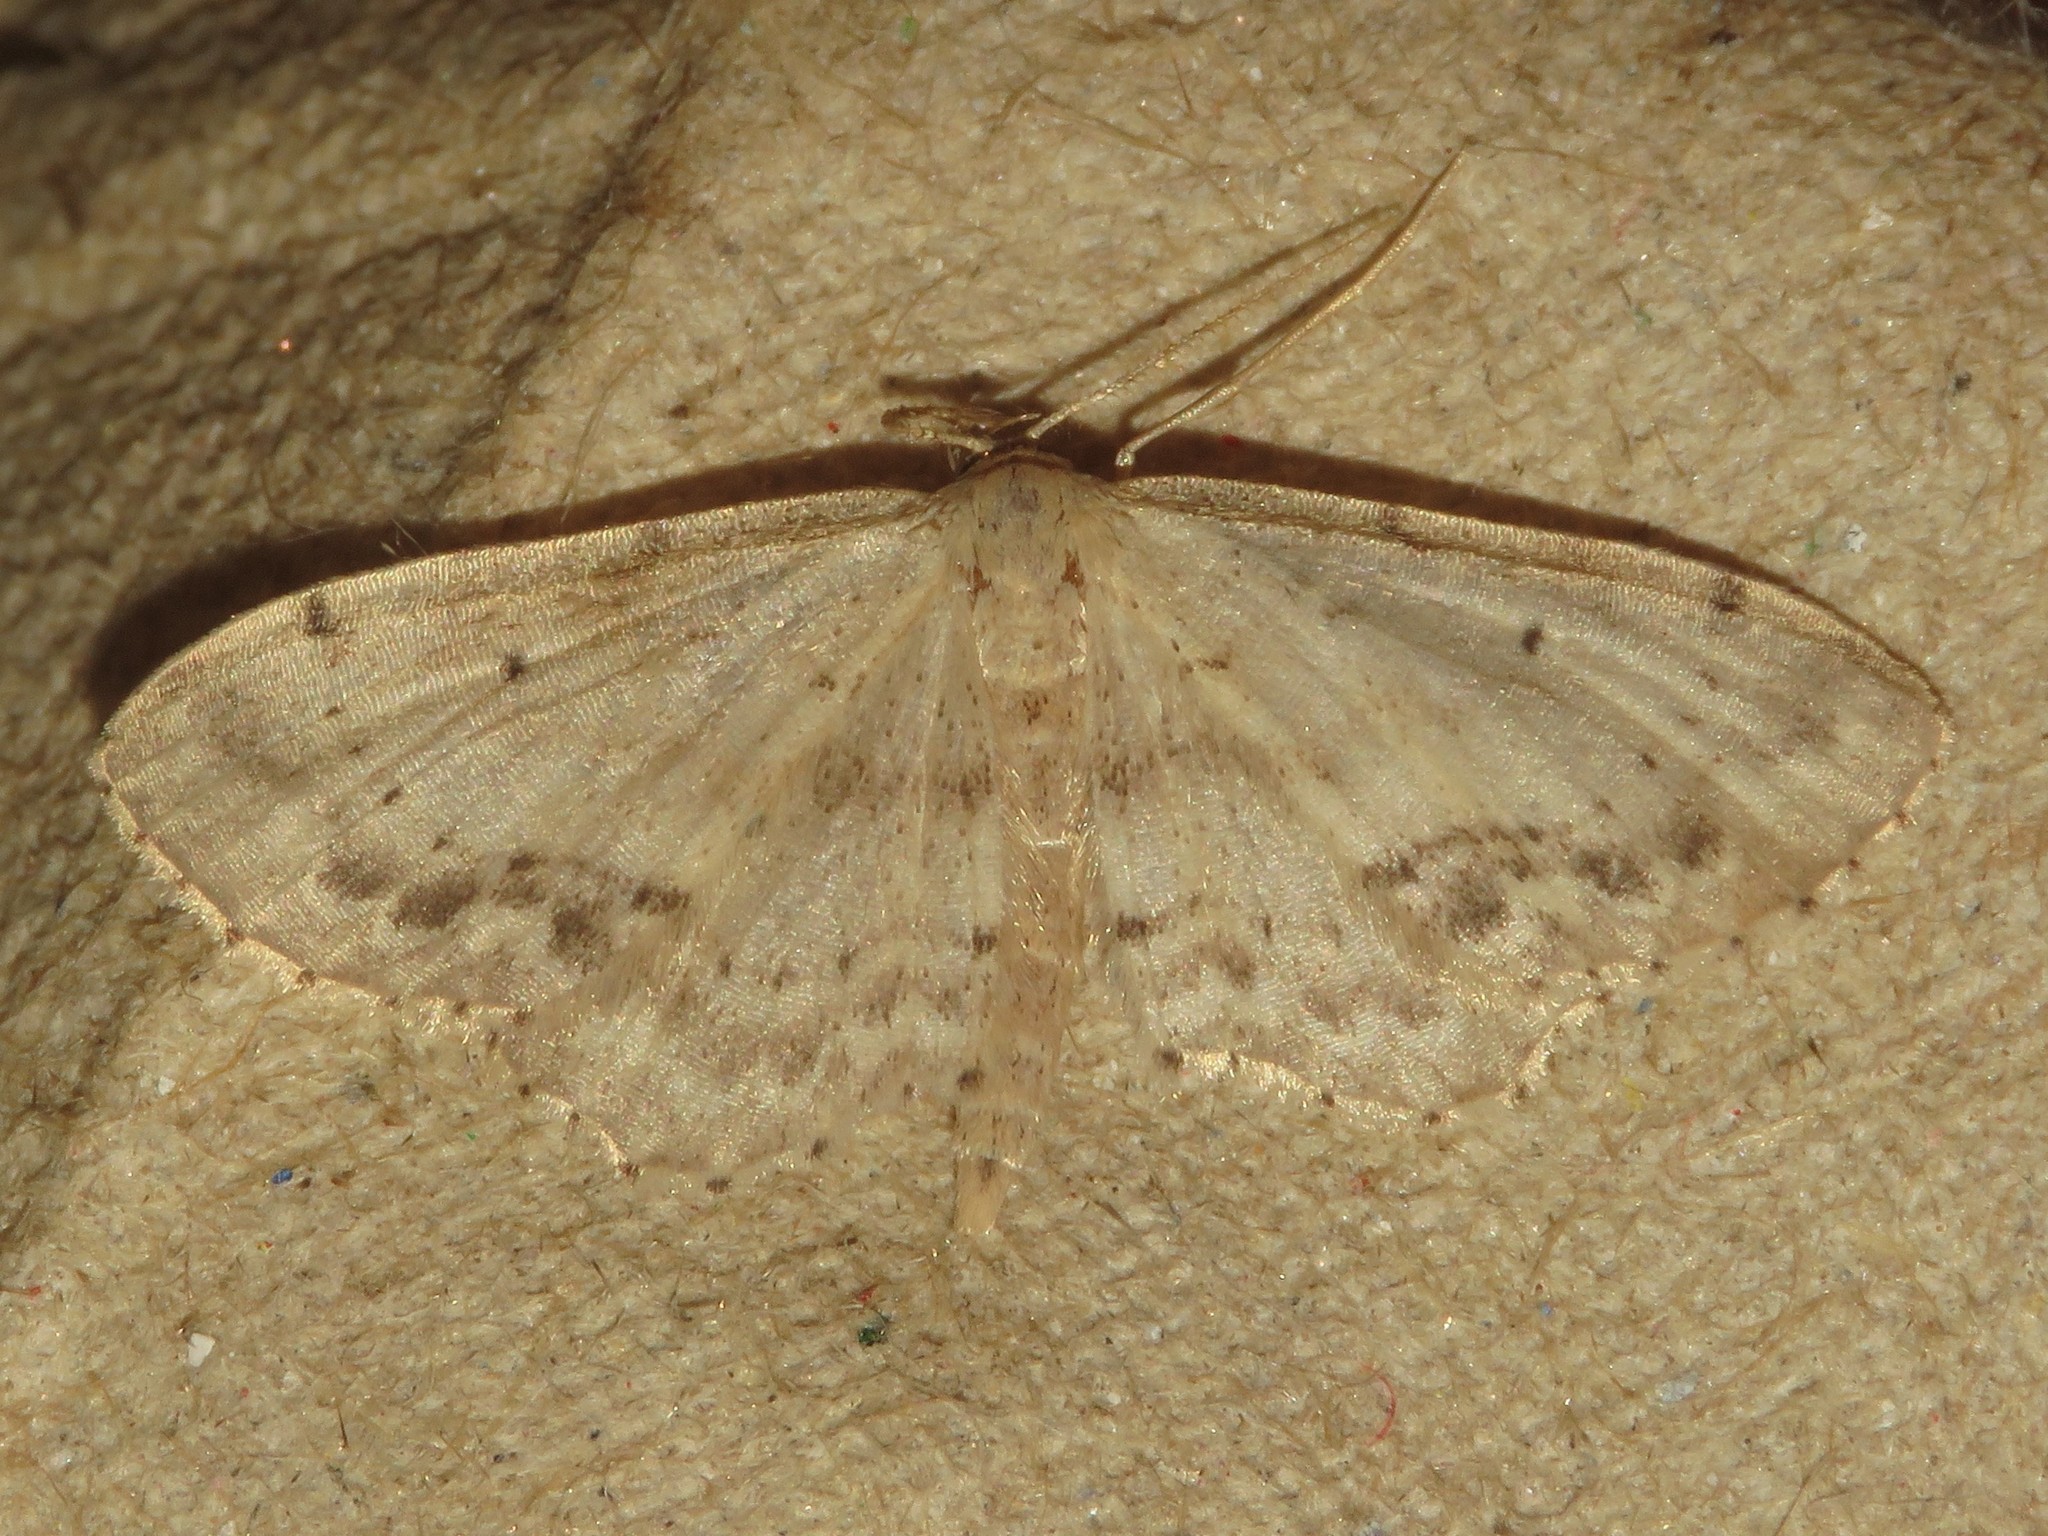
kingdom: Animalia
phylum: Arthropoda
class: Insecta
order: Lepidoptera
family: Geometridae
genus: Idaea
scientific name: Idaea dimidiata
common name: Single-dotted wave
